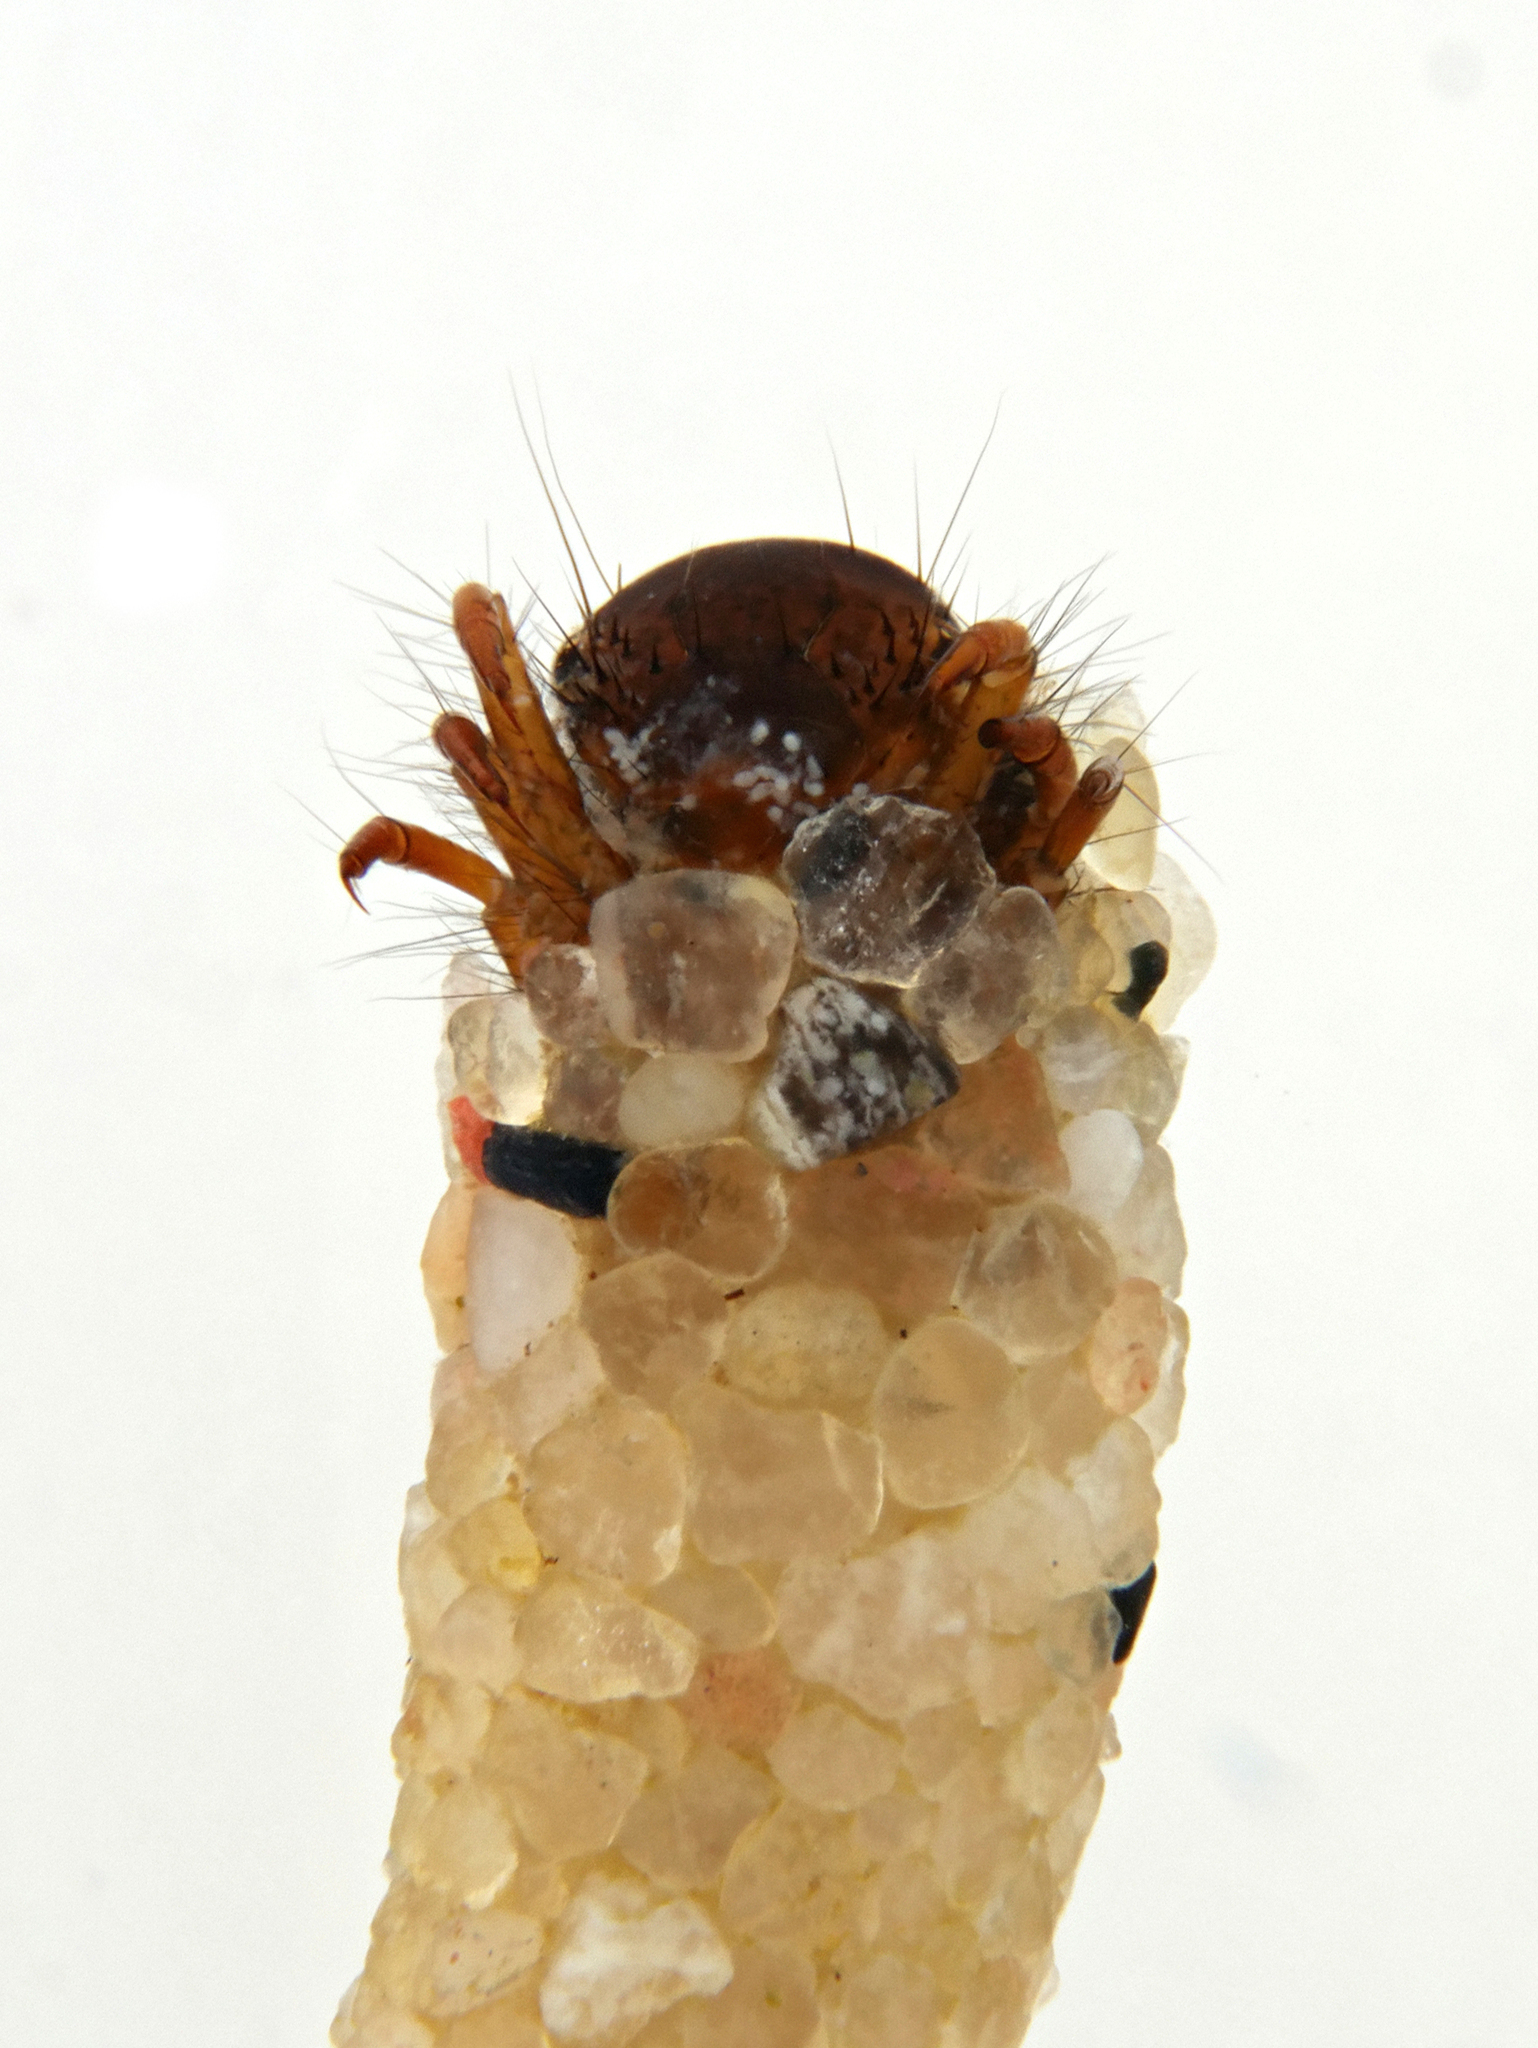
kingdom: Animalia
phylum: Arthropoda
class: Insecta
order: Trichoptera
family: Limnephilidae
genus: Ecclisopteryx
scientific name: Ecclisopteryx dalecarlica
